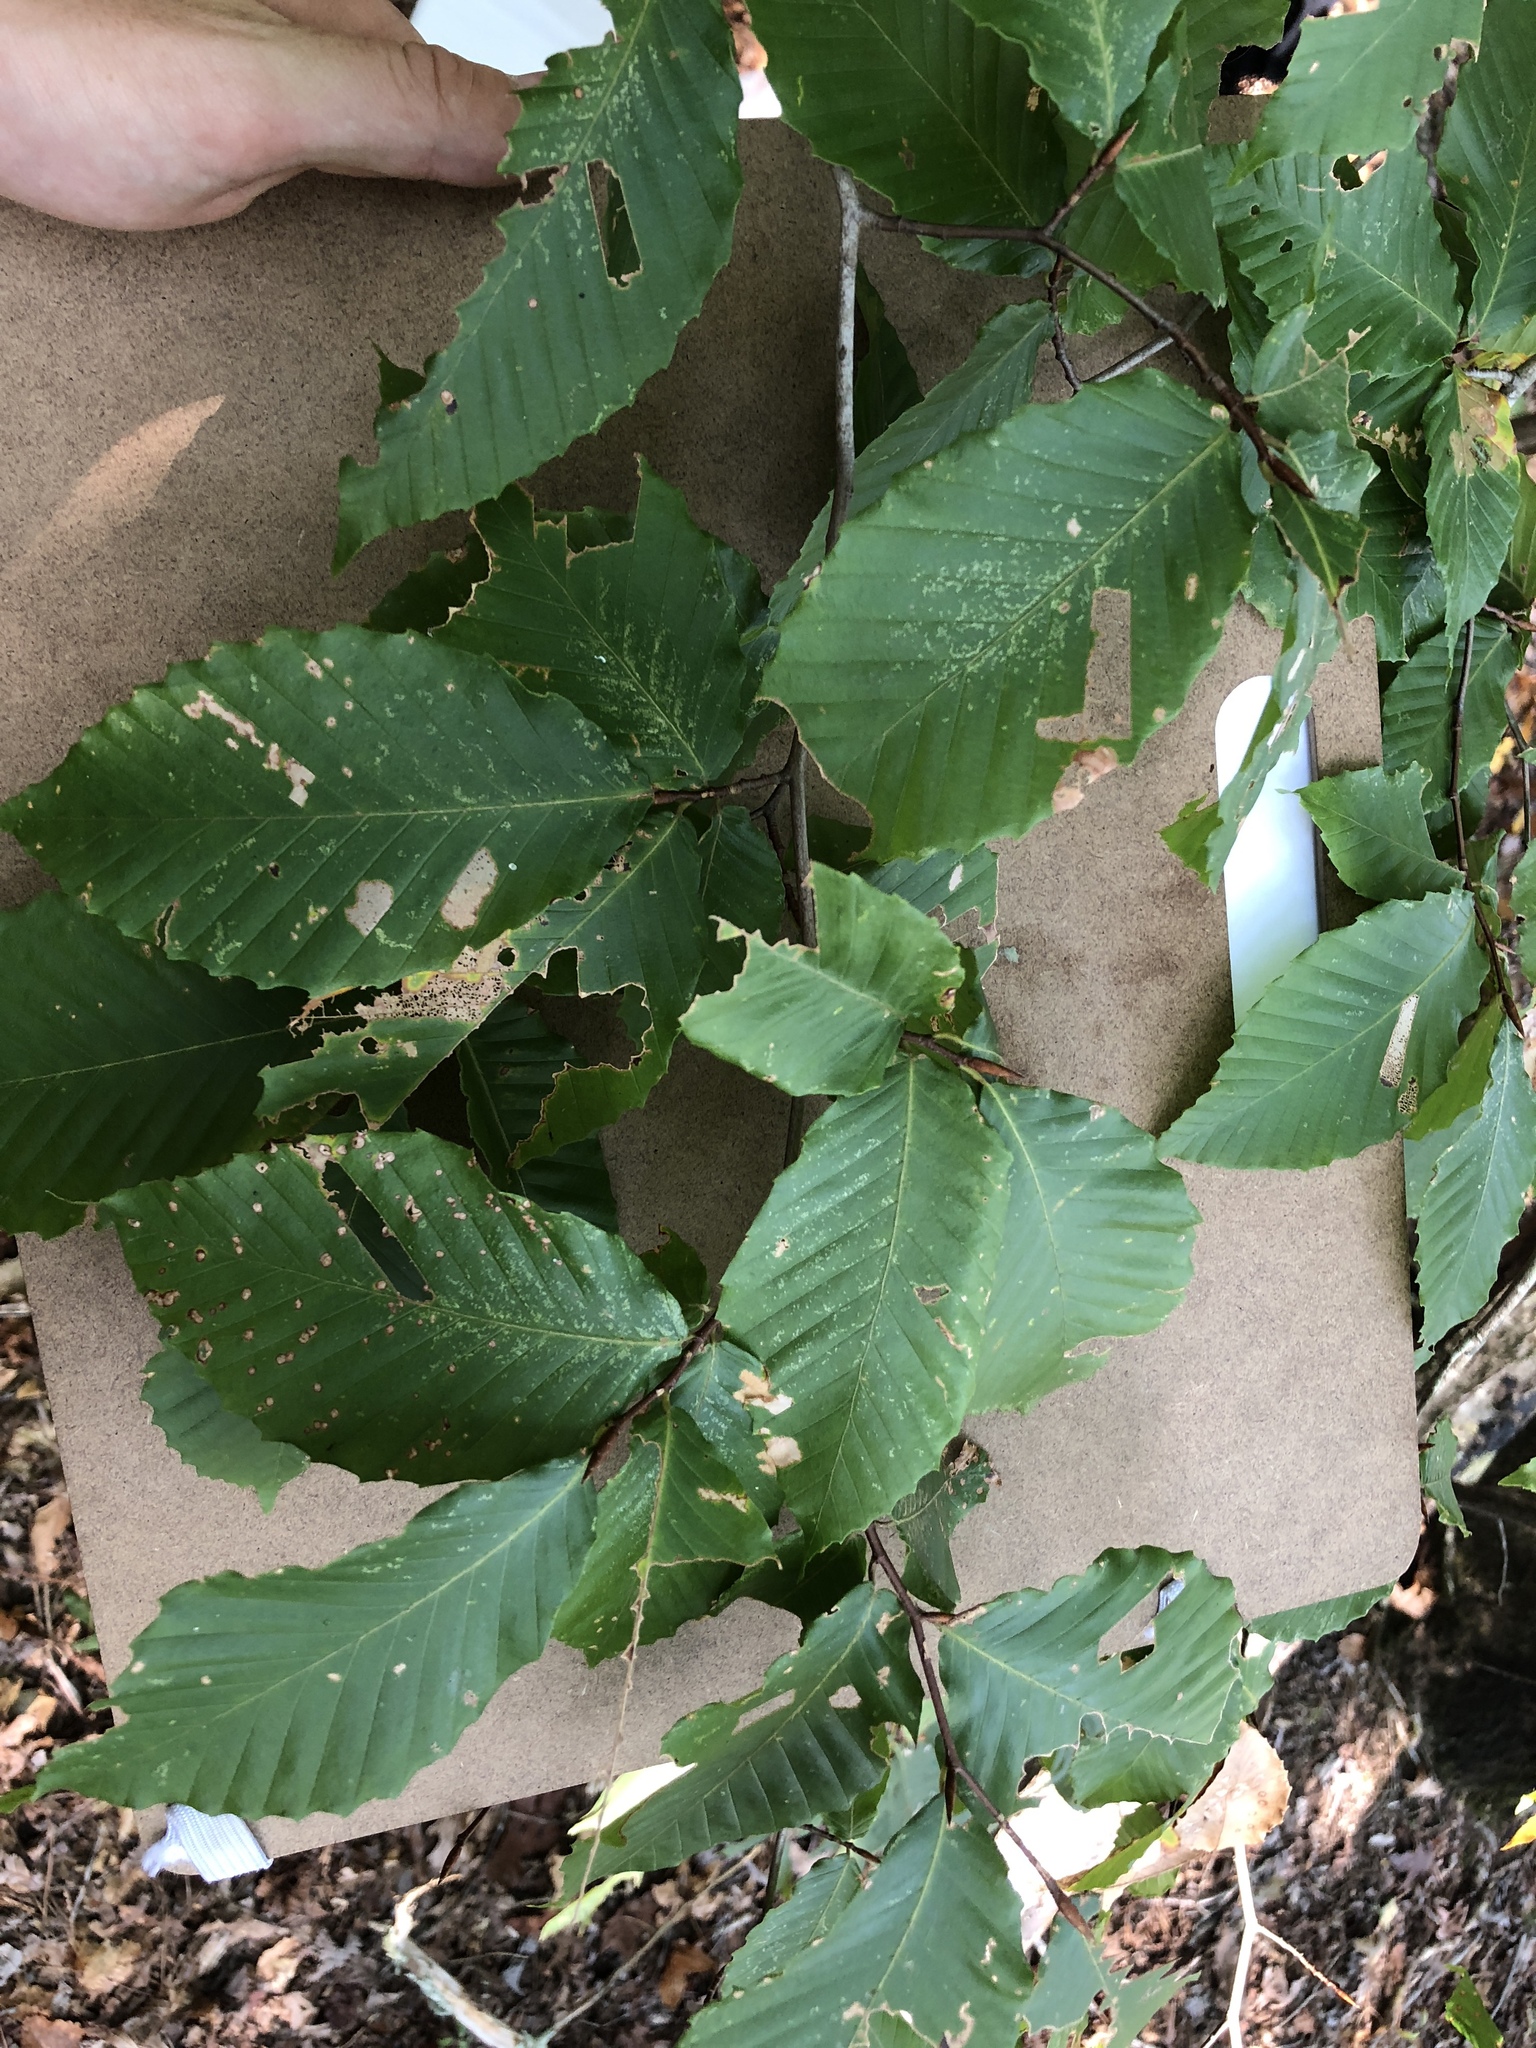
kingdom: Plantae
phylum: Tracheophyta
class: Magnoliopsida
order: Fagales
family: Fagaceae
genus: Fagus
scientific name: Fagus grandifolia
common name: American beech
